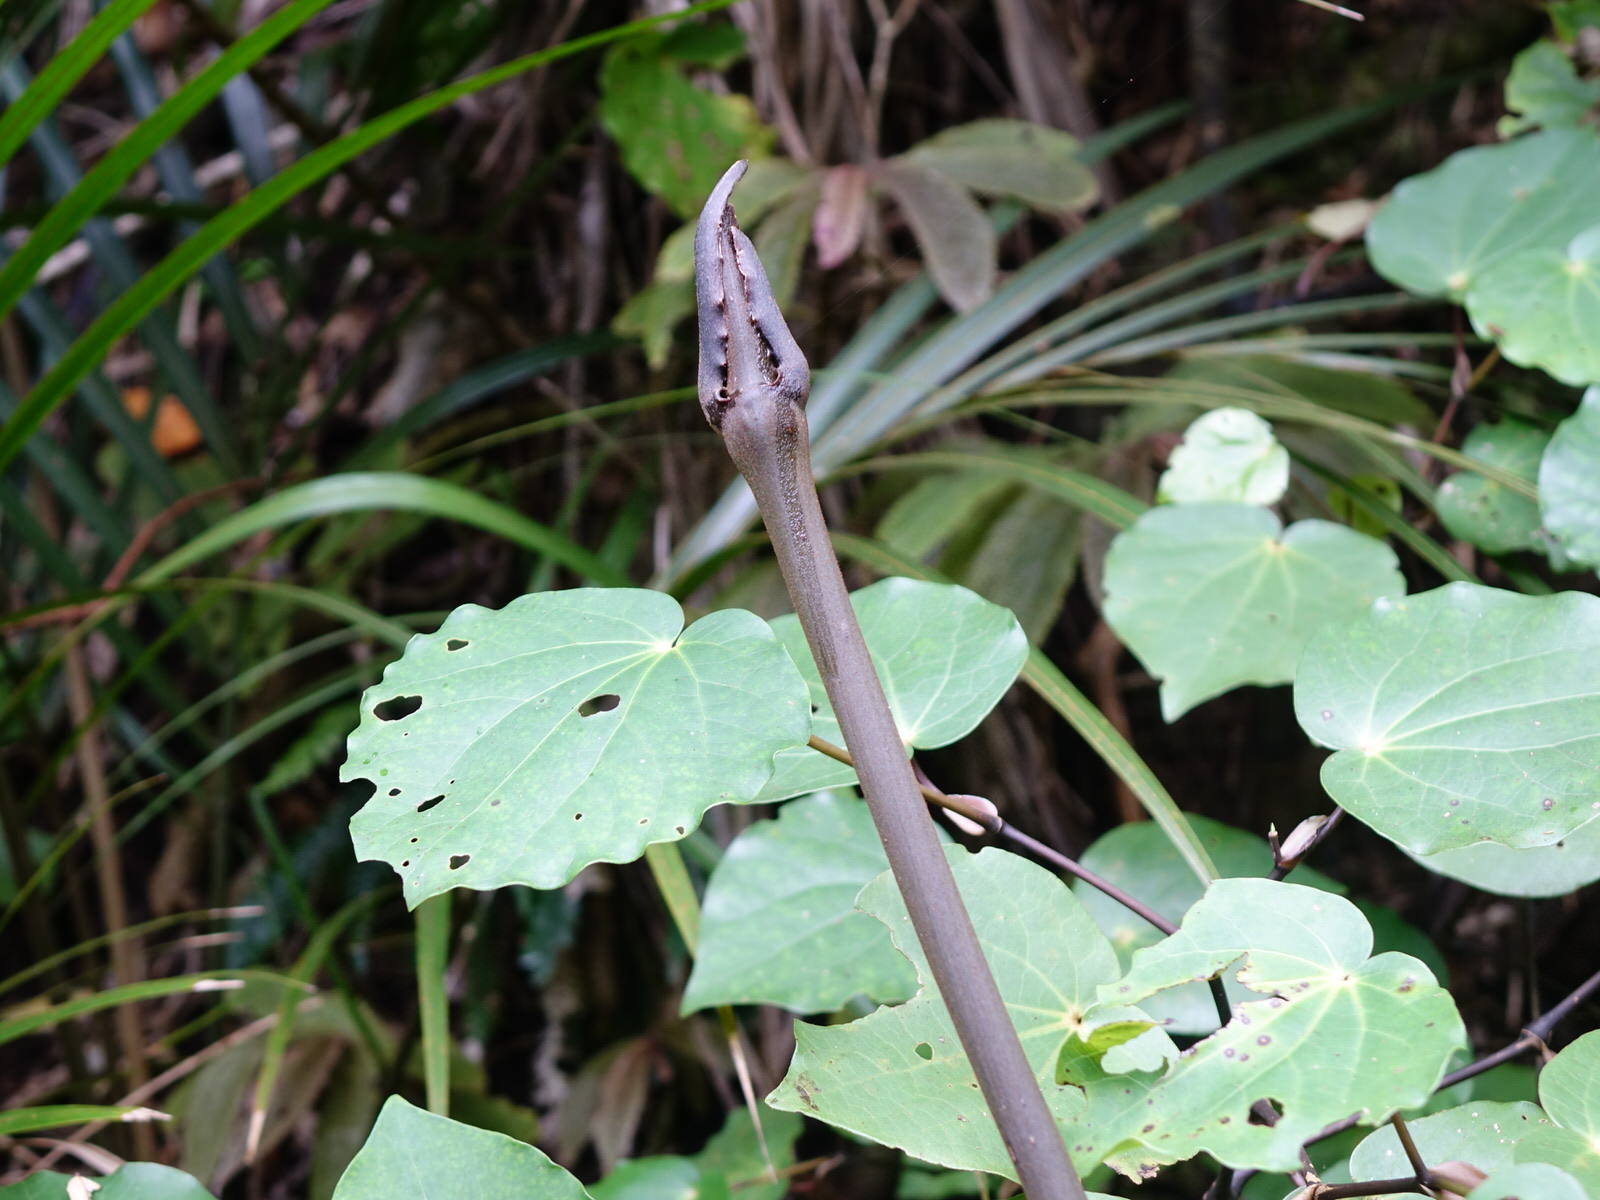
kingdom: Plantae
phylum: Tracheophyta
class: Liliopsida
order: Liliales
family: Ripogonaceae
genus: Ripogonum
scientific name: Ripogonum scandens
